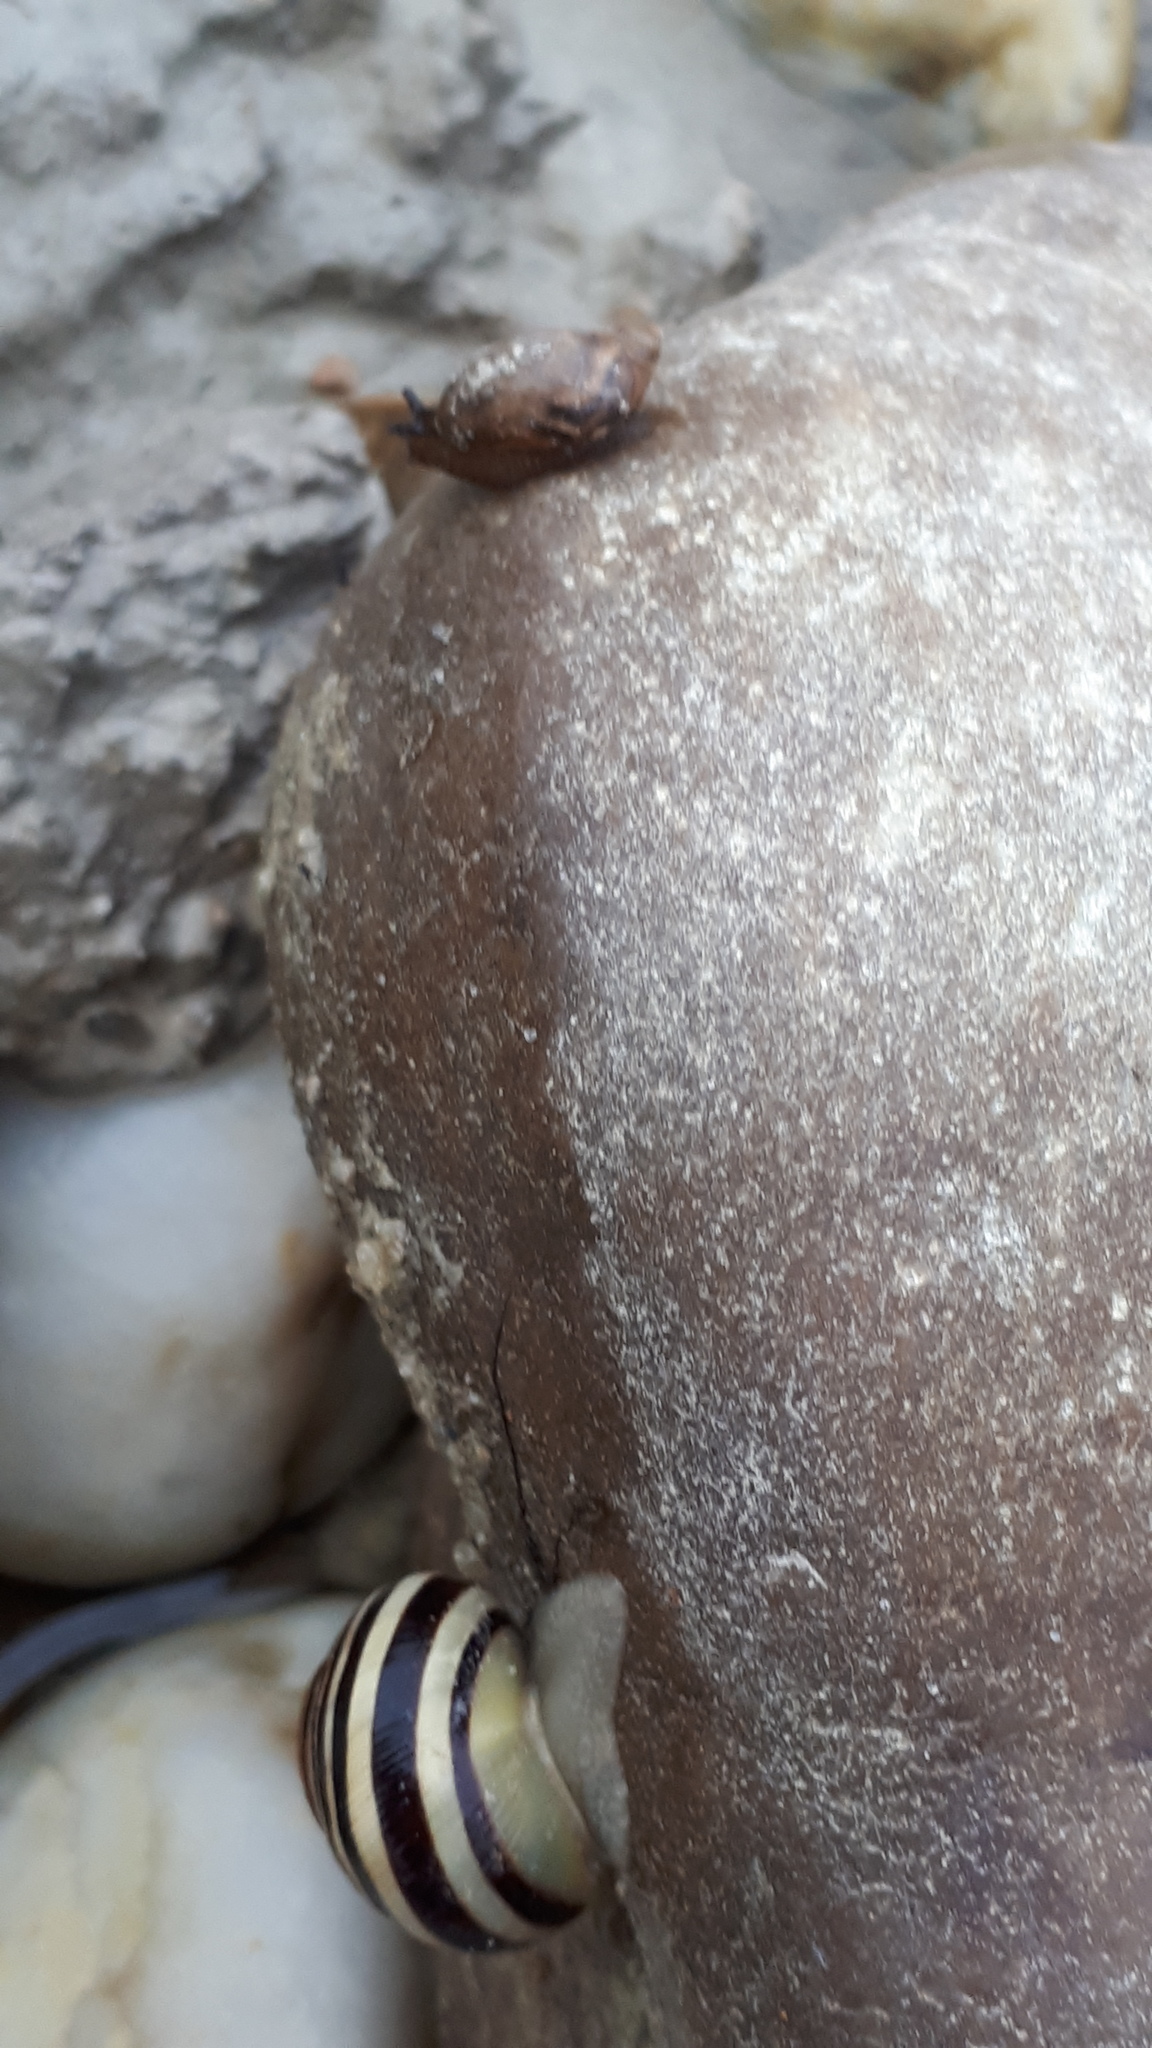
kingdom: Animalia
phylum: Mollusca
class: Gastropoda
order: Stylommatophora
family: Helicidae
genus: Cepaea
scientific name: Cepaea hortensis
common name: White-lip gardensnail
